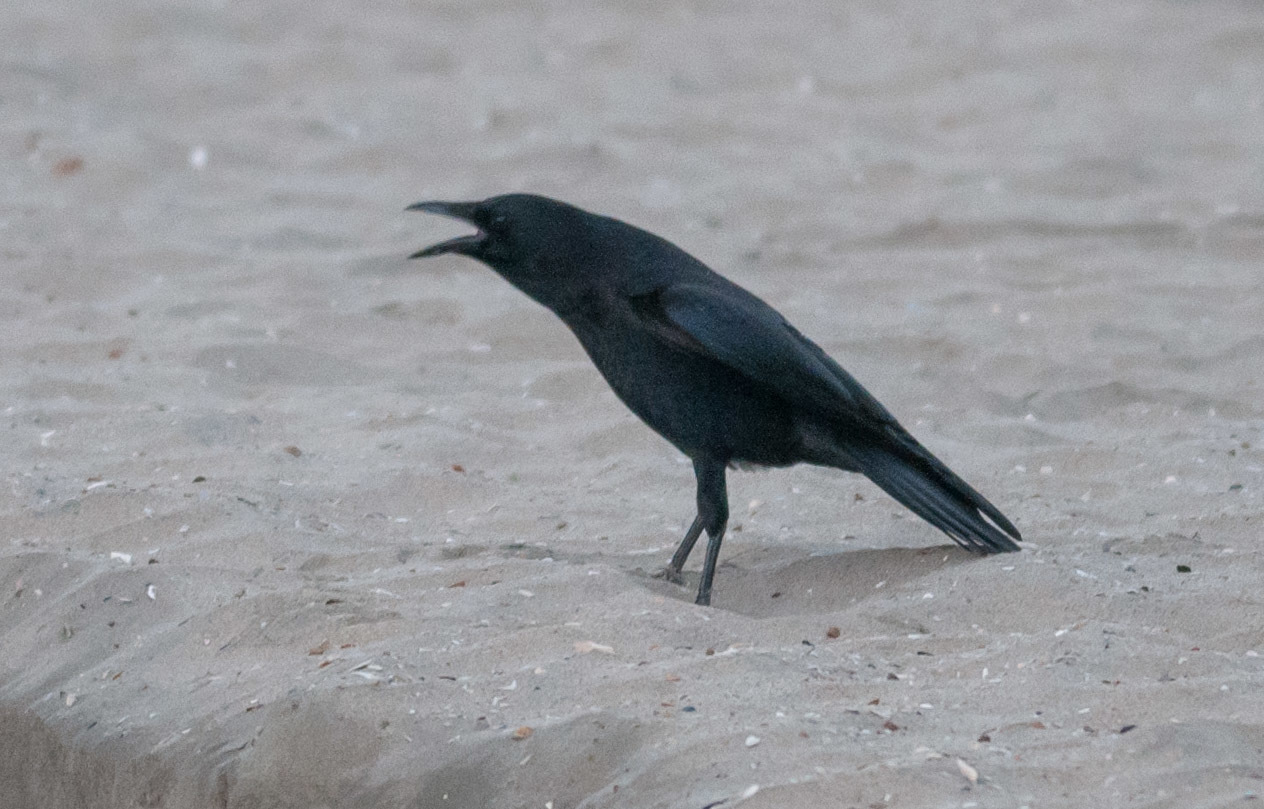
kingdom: Animalia
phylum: Chordata
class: Aves
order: Passeriformes
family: Corvidae
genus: Corvus
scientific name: Corvus brachyrhynchos
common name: American crow
